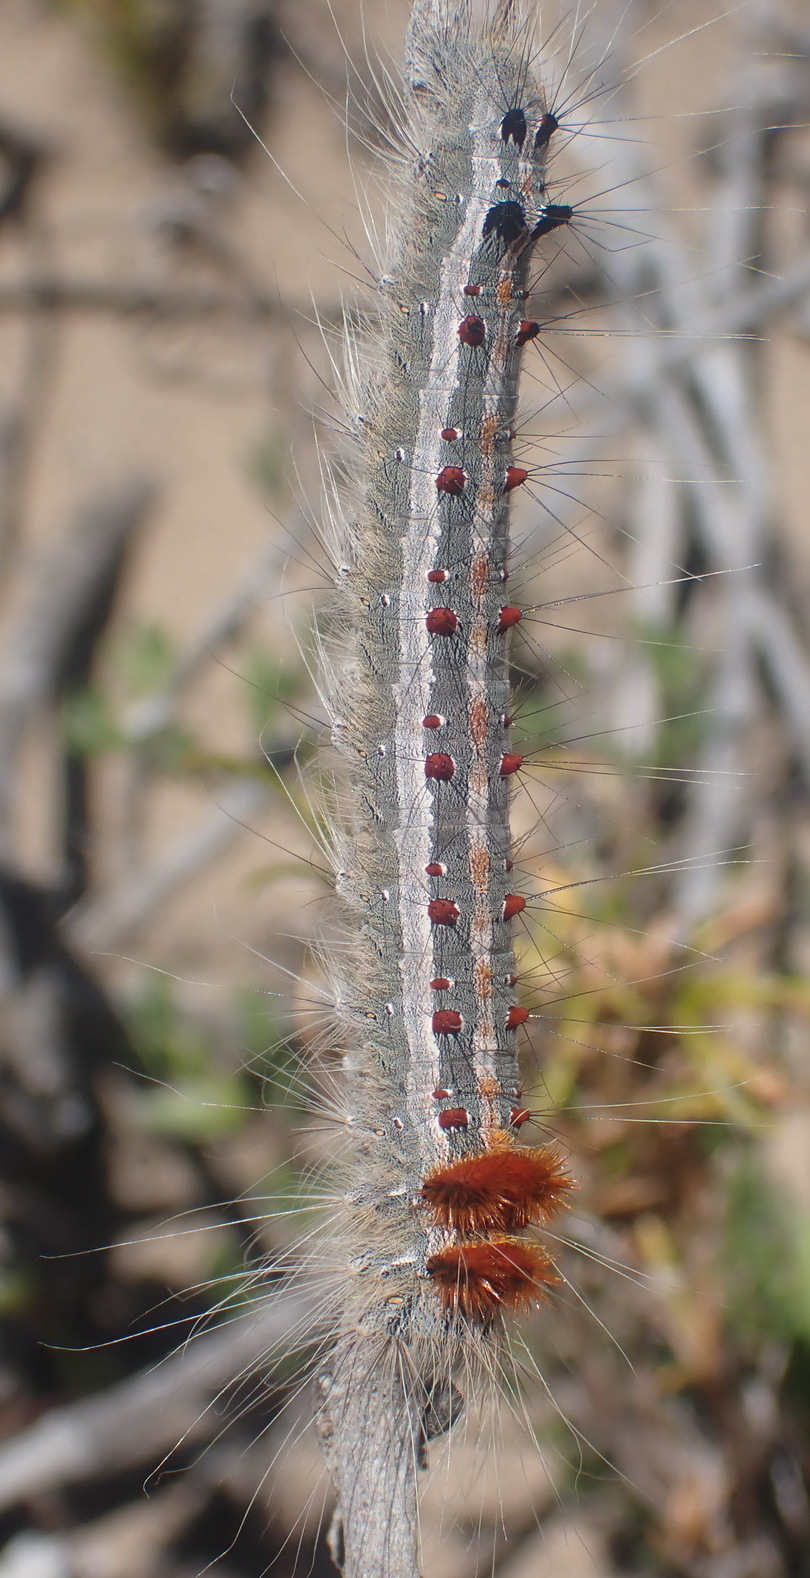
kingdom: Animalia
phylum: Arthropoda
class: Insecta
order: Lepidoptera
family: Lasiocampidae
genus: Streblote
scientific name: Streblote cristata
